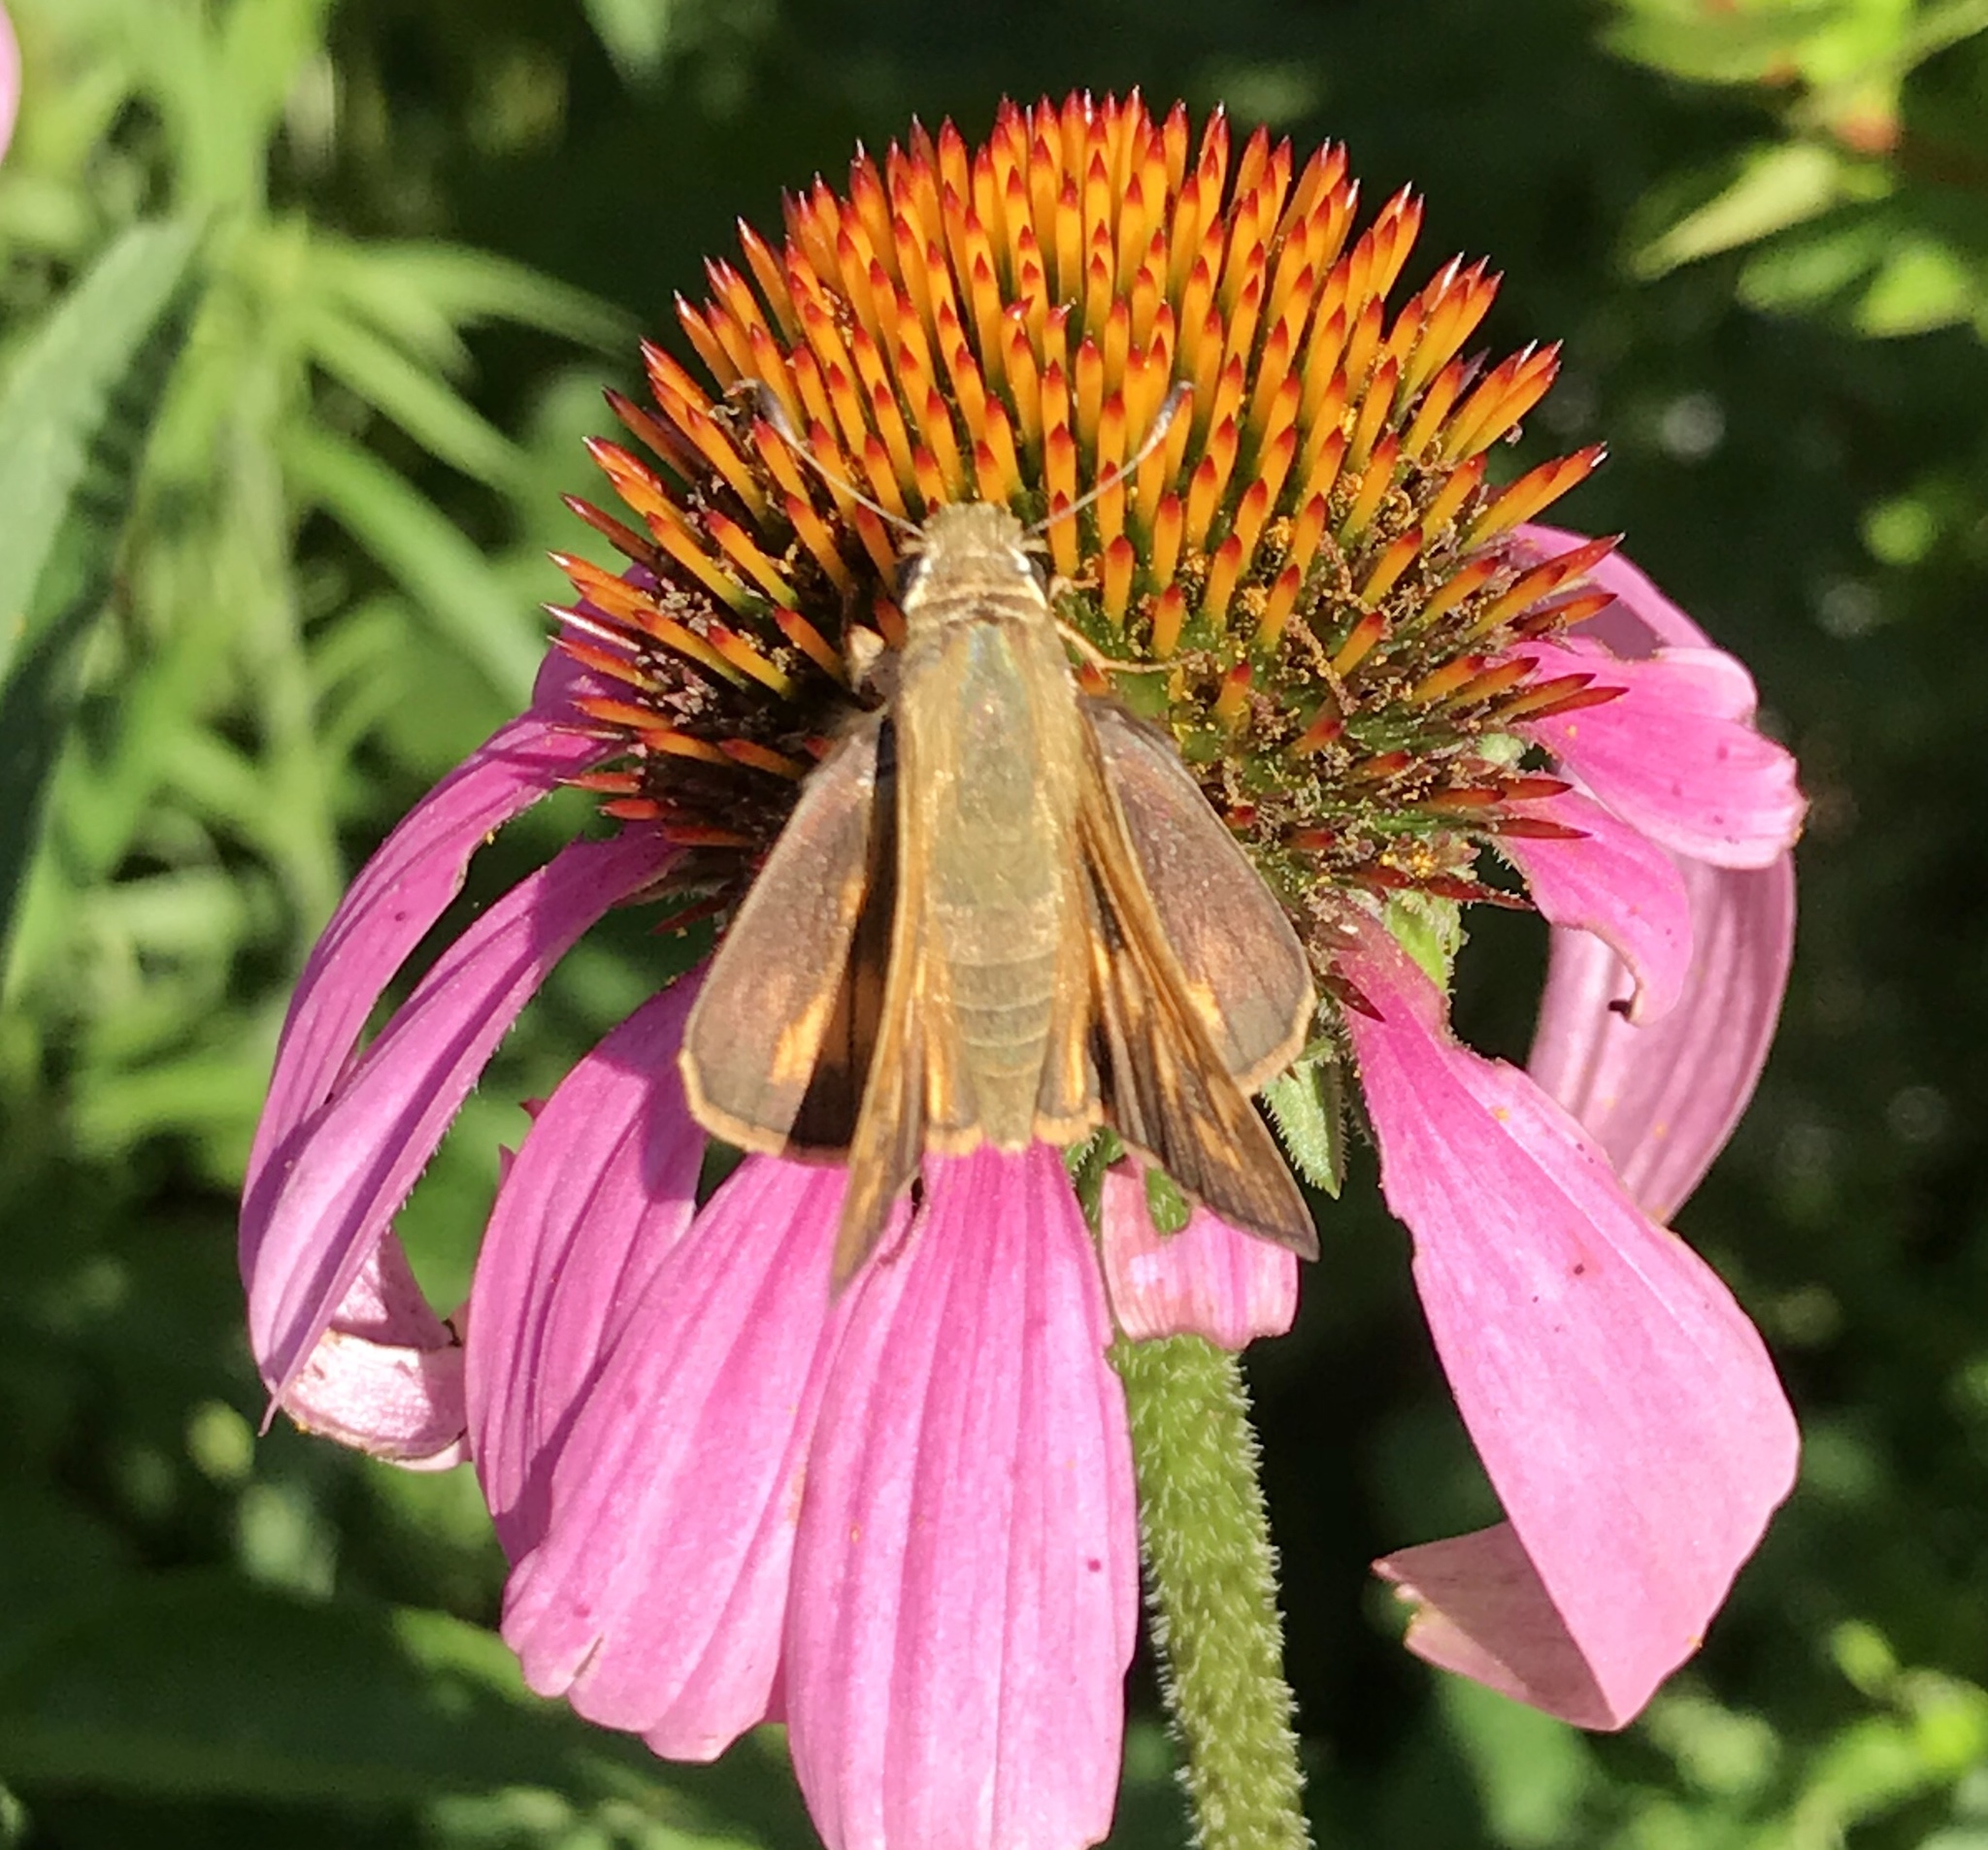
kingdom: Animalia
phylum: Arthropoda
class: Insecta
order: Lepidoptera
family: Hesperiidae
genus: Hylephila
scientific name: Hylephila phyleus
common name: Fiery skipper
